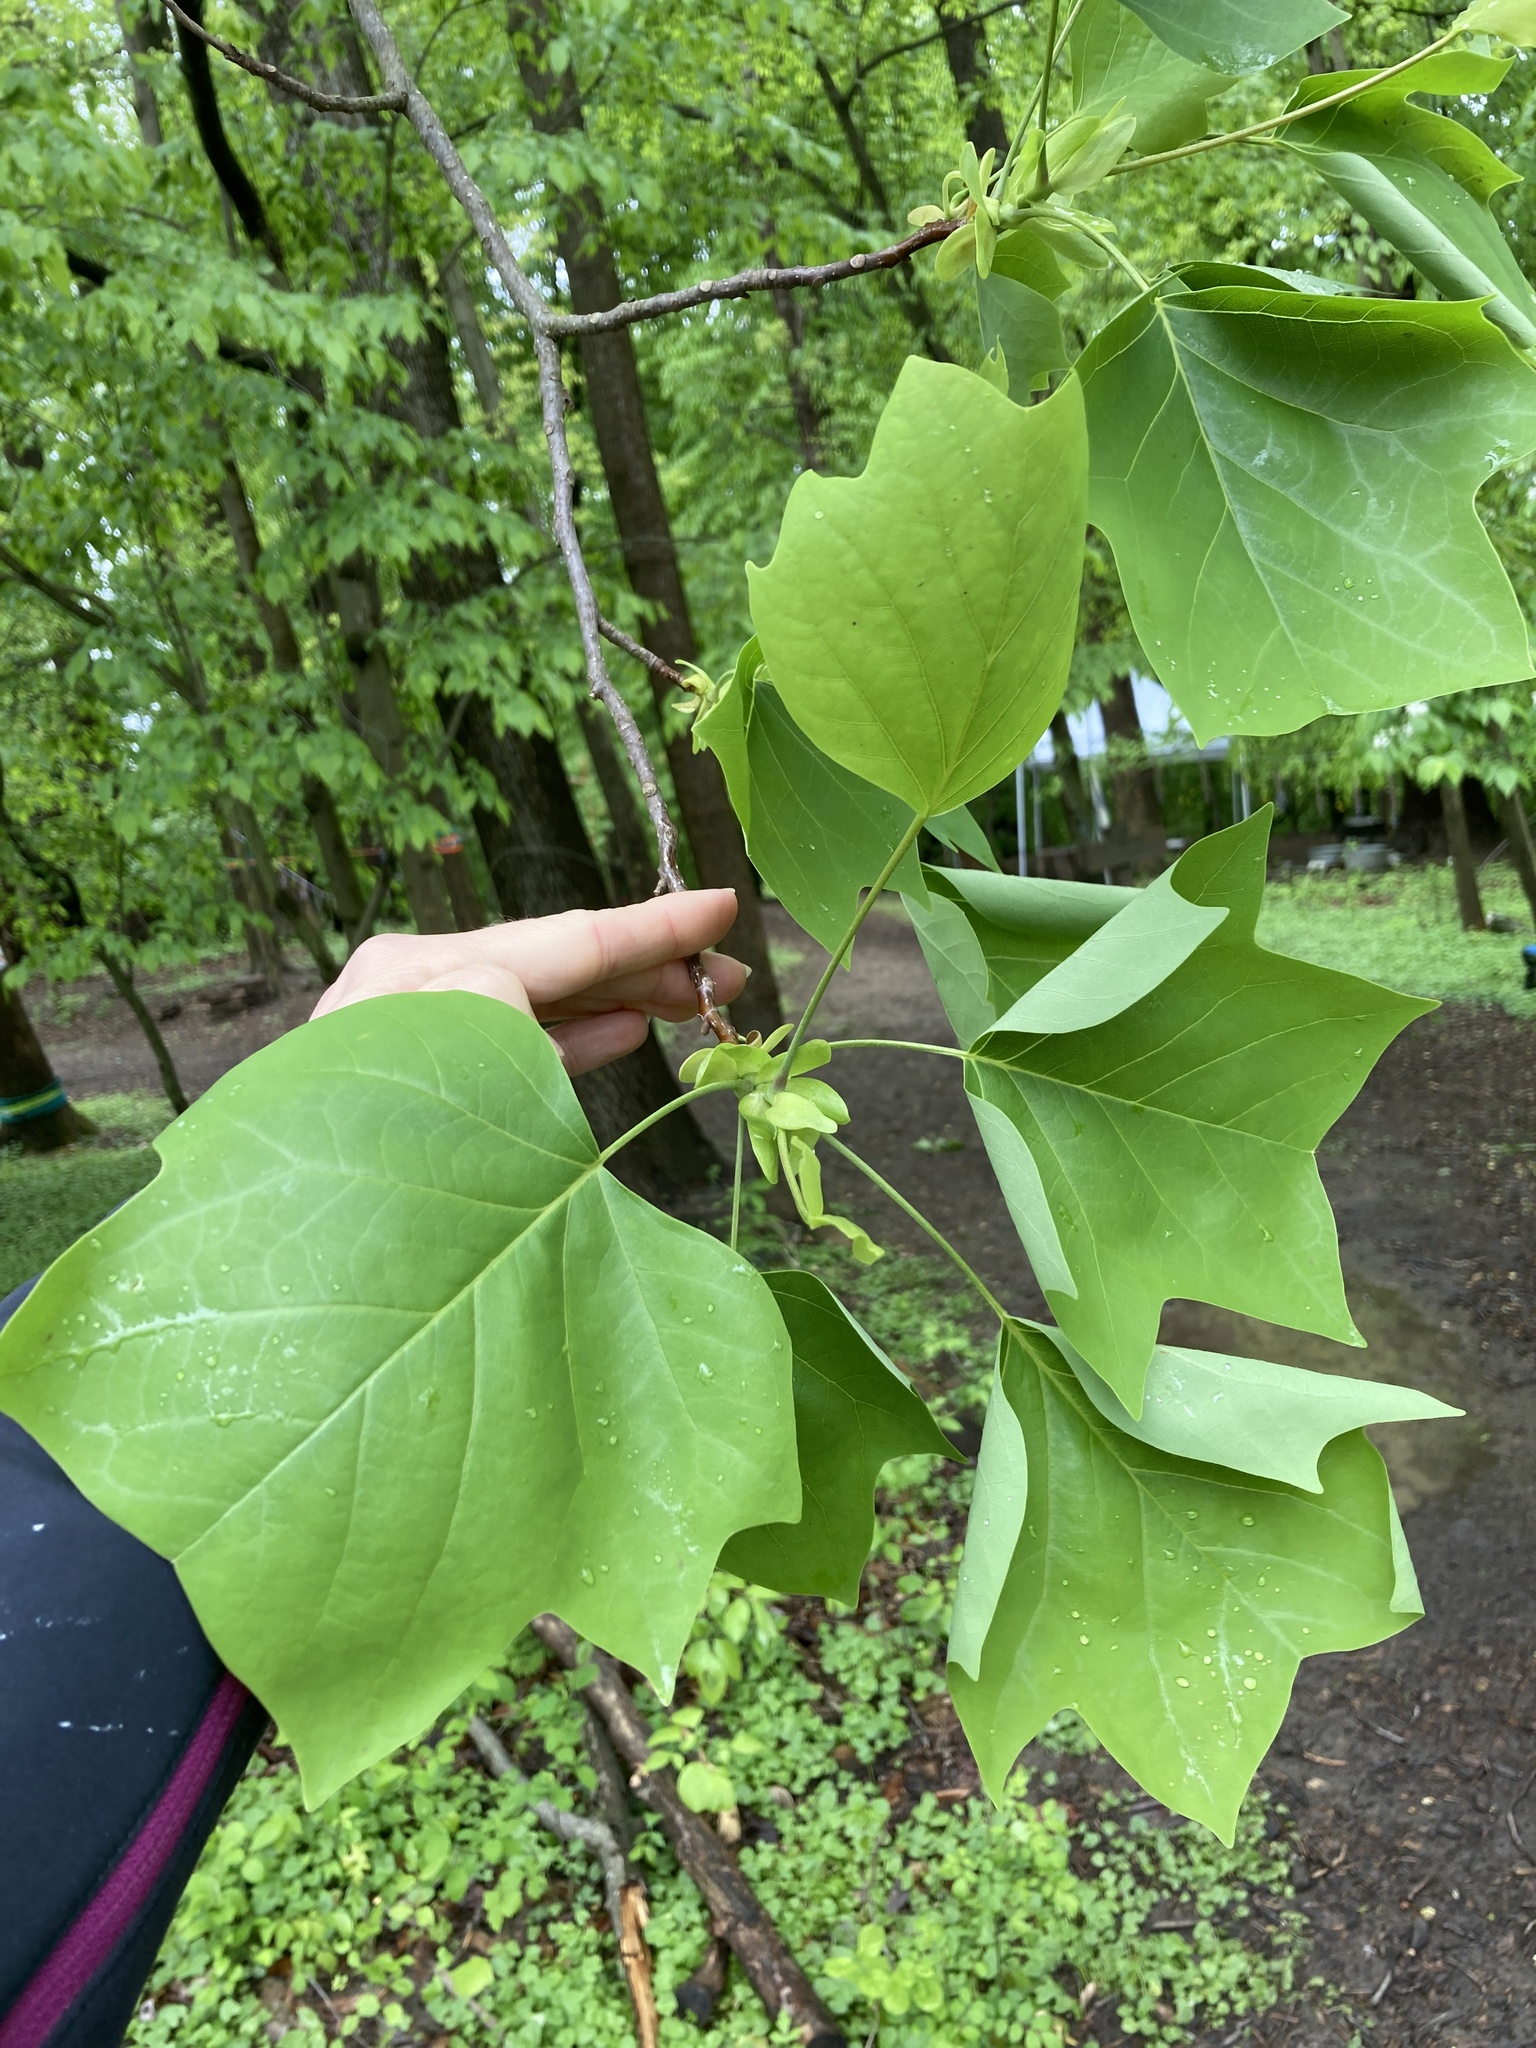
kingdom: Plantae
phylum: Tracheophyta
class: Magnoliopsida
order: Magnoliales
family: Magnoliaceae
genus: Liriodendron
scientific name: Liriodendron tulipifera
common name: Tulip tree
